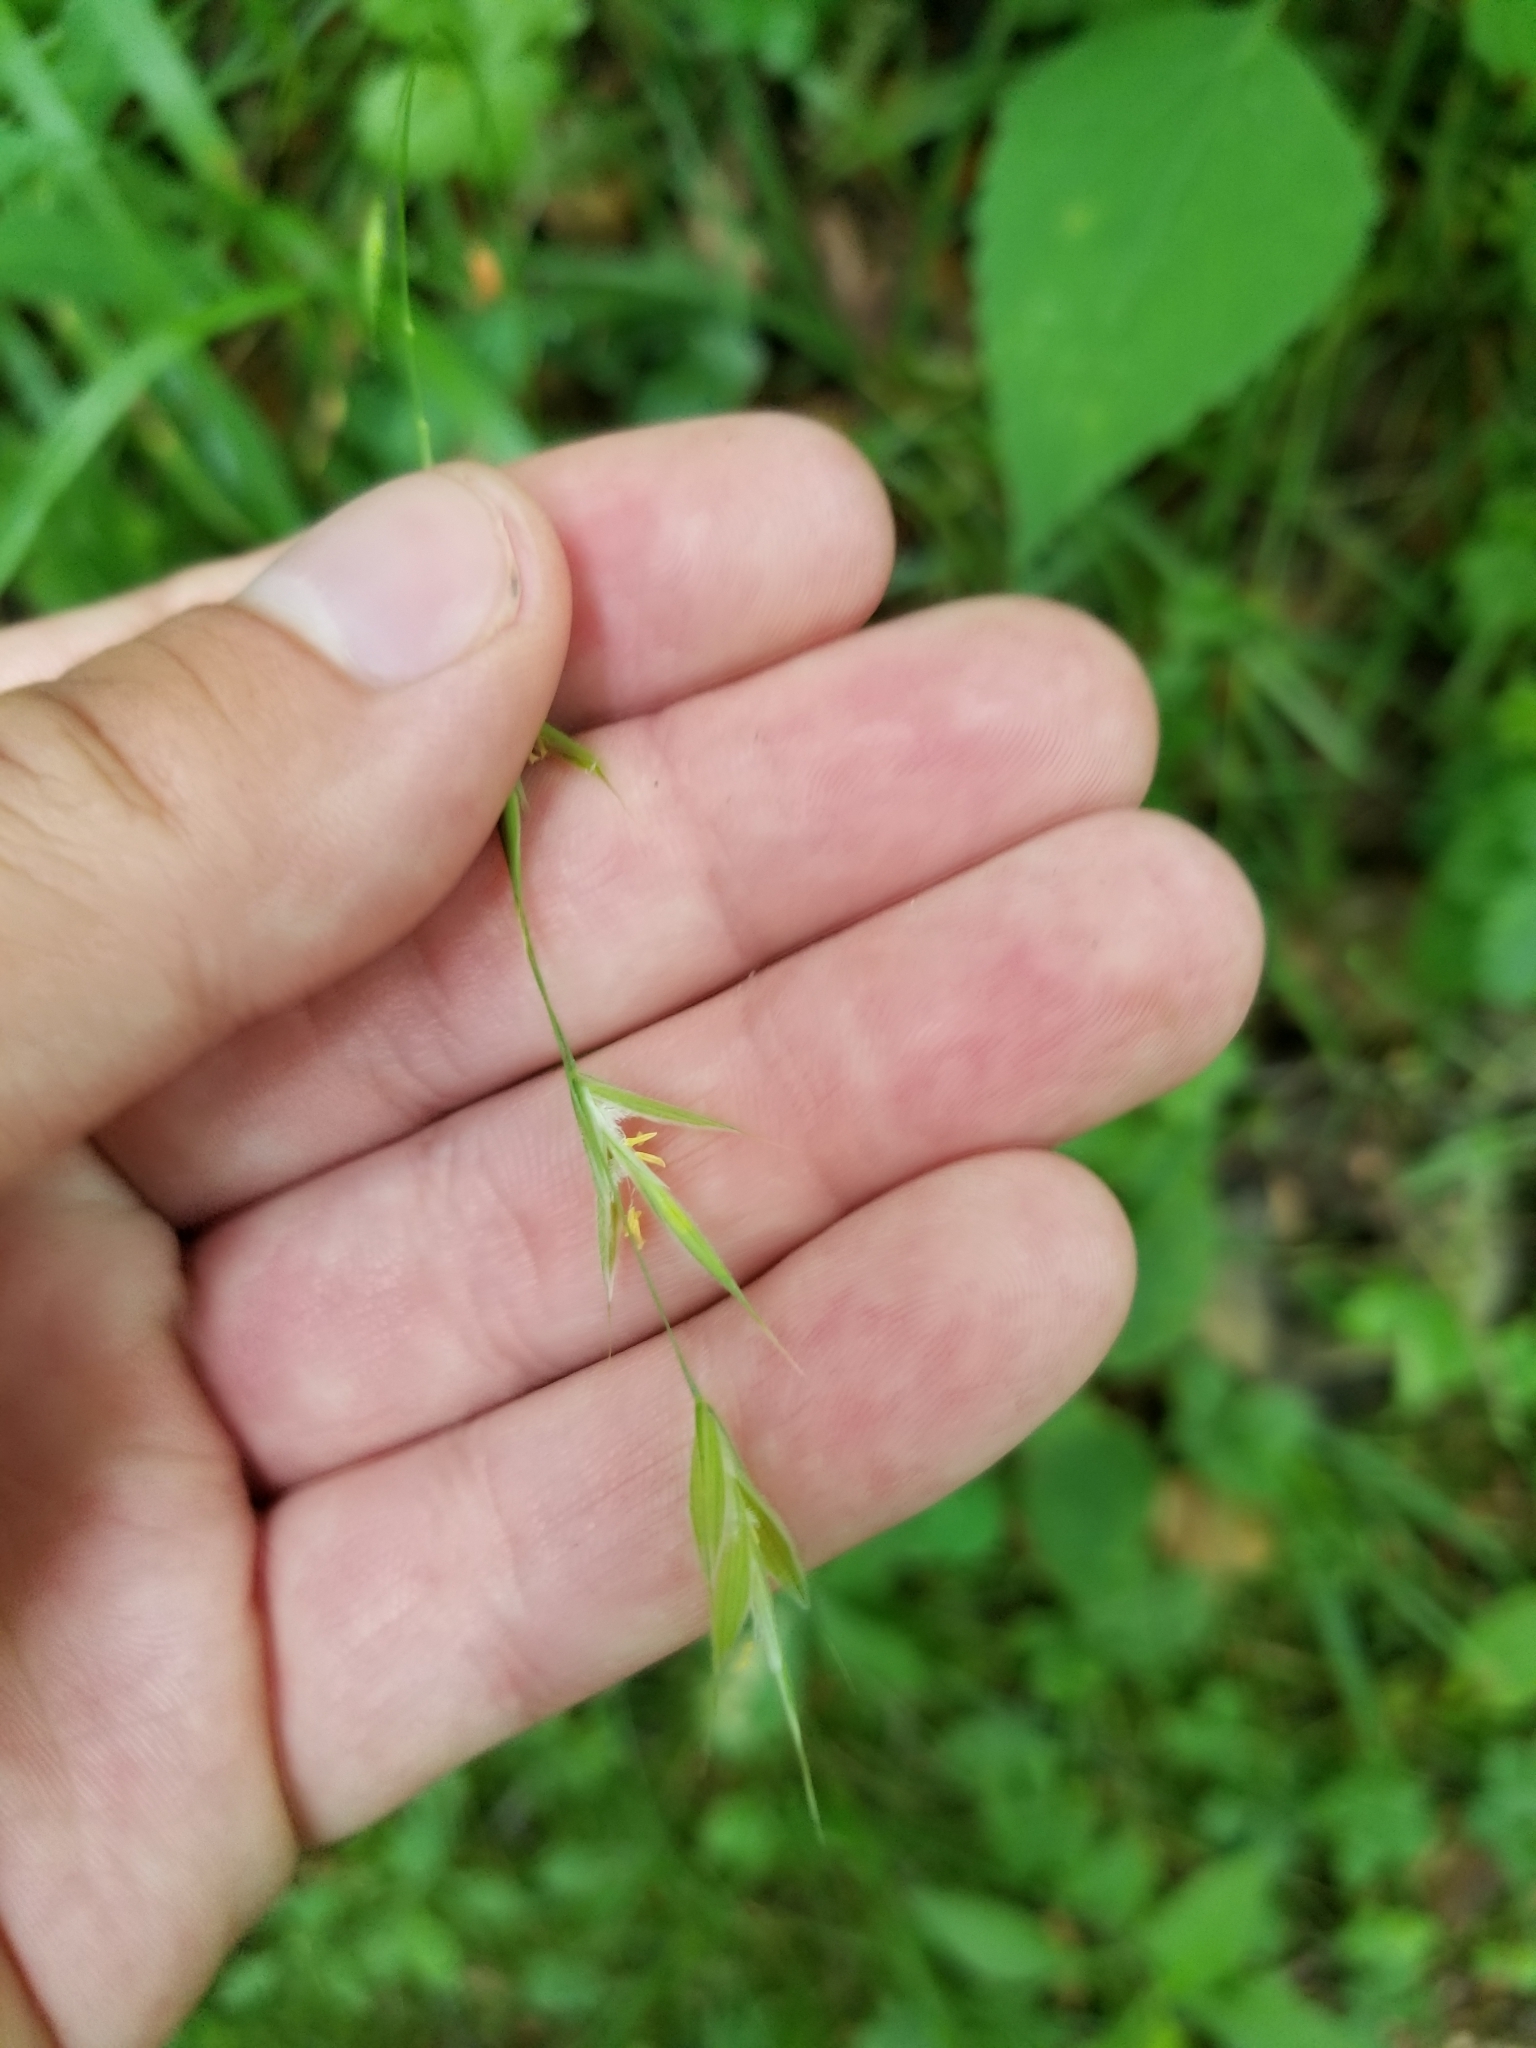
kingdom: Plantae
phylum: Tracheophyta
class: Liliopsida
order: Poales
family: Poaceae
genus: Bromus
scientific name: Bromus pubescens
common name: Hairy wood brome grass
